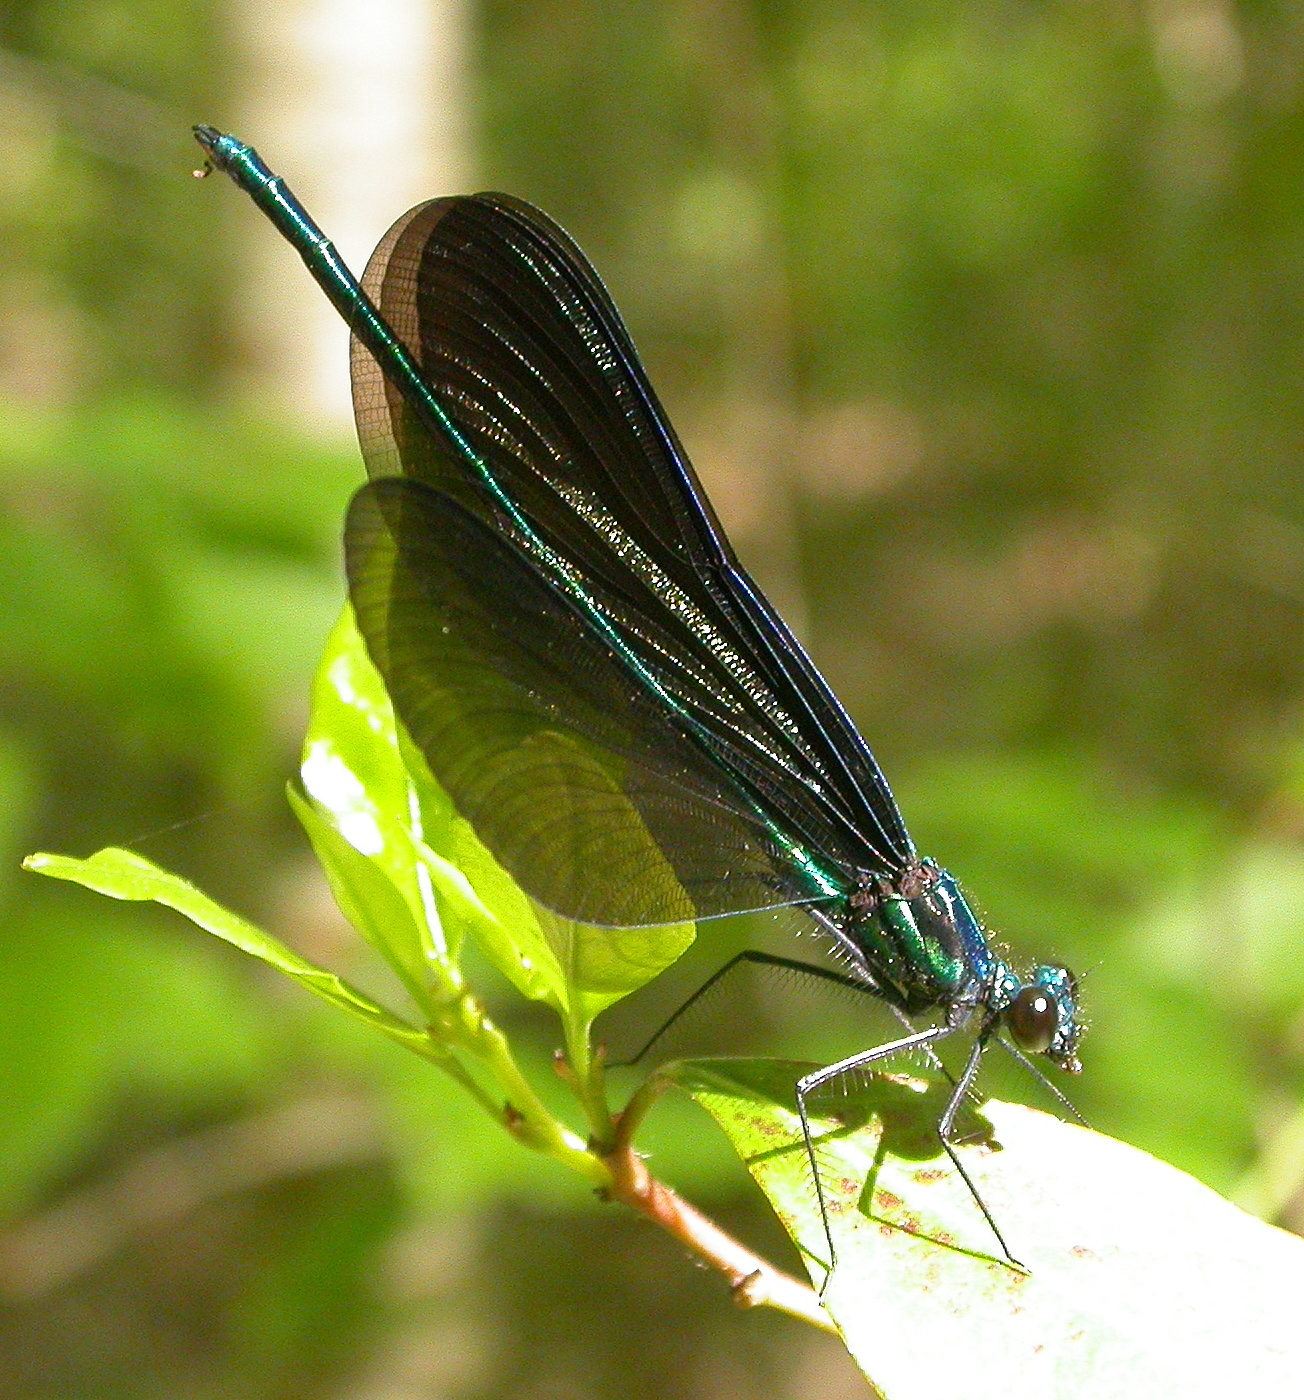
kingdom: Animalia
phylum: Arthropoda
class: Insecta
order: Odonata
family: Calopterygidae
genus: Calopteryx
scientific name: Calopteryx maculata
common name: Ebony jewelwing
